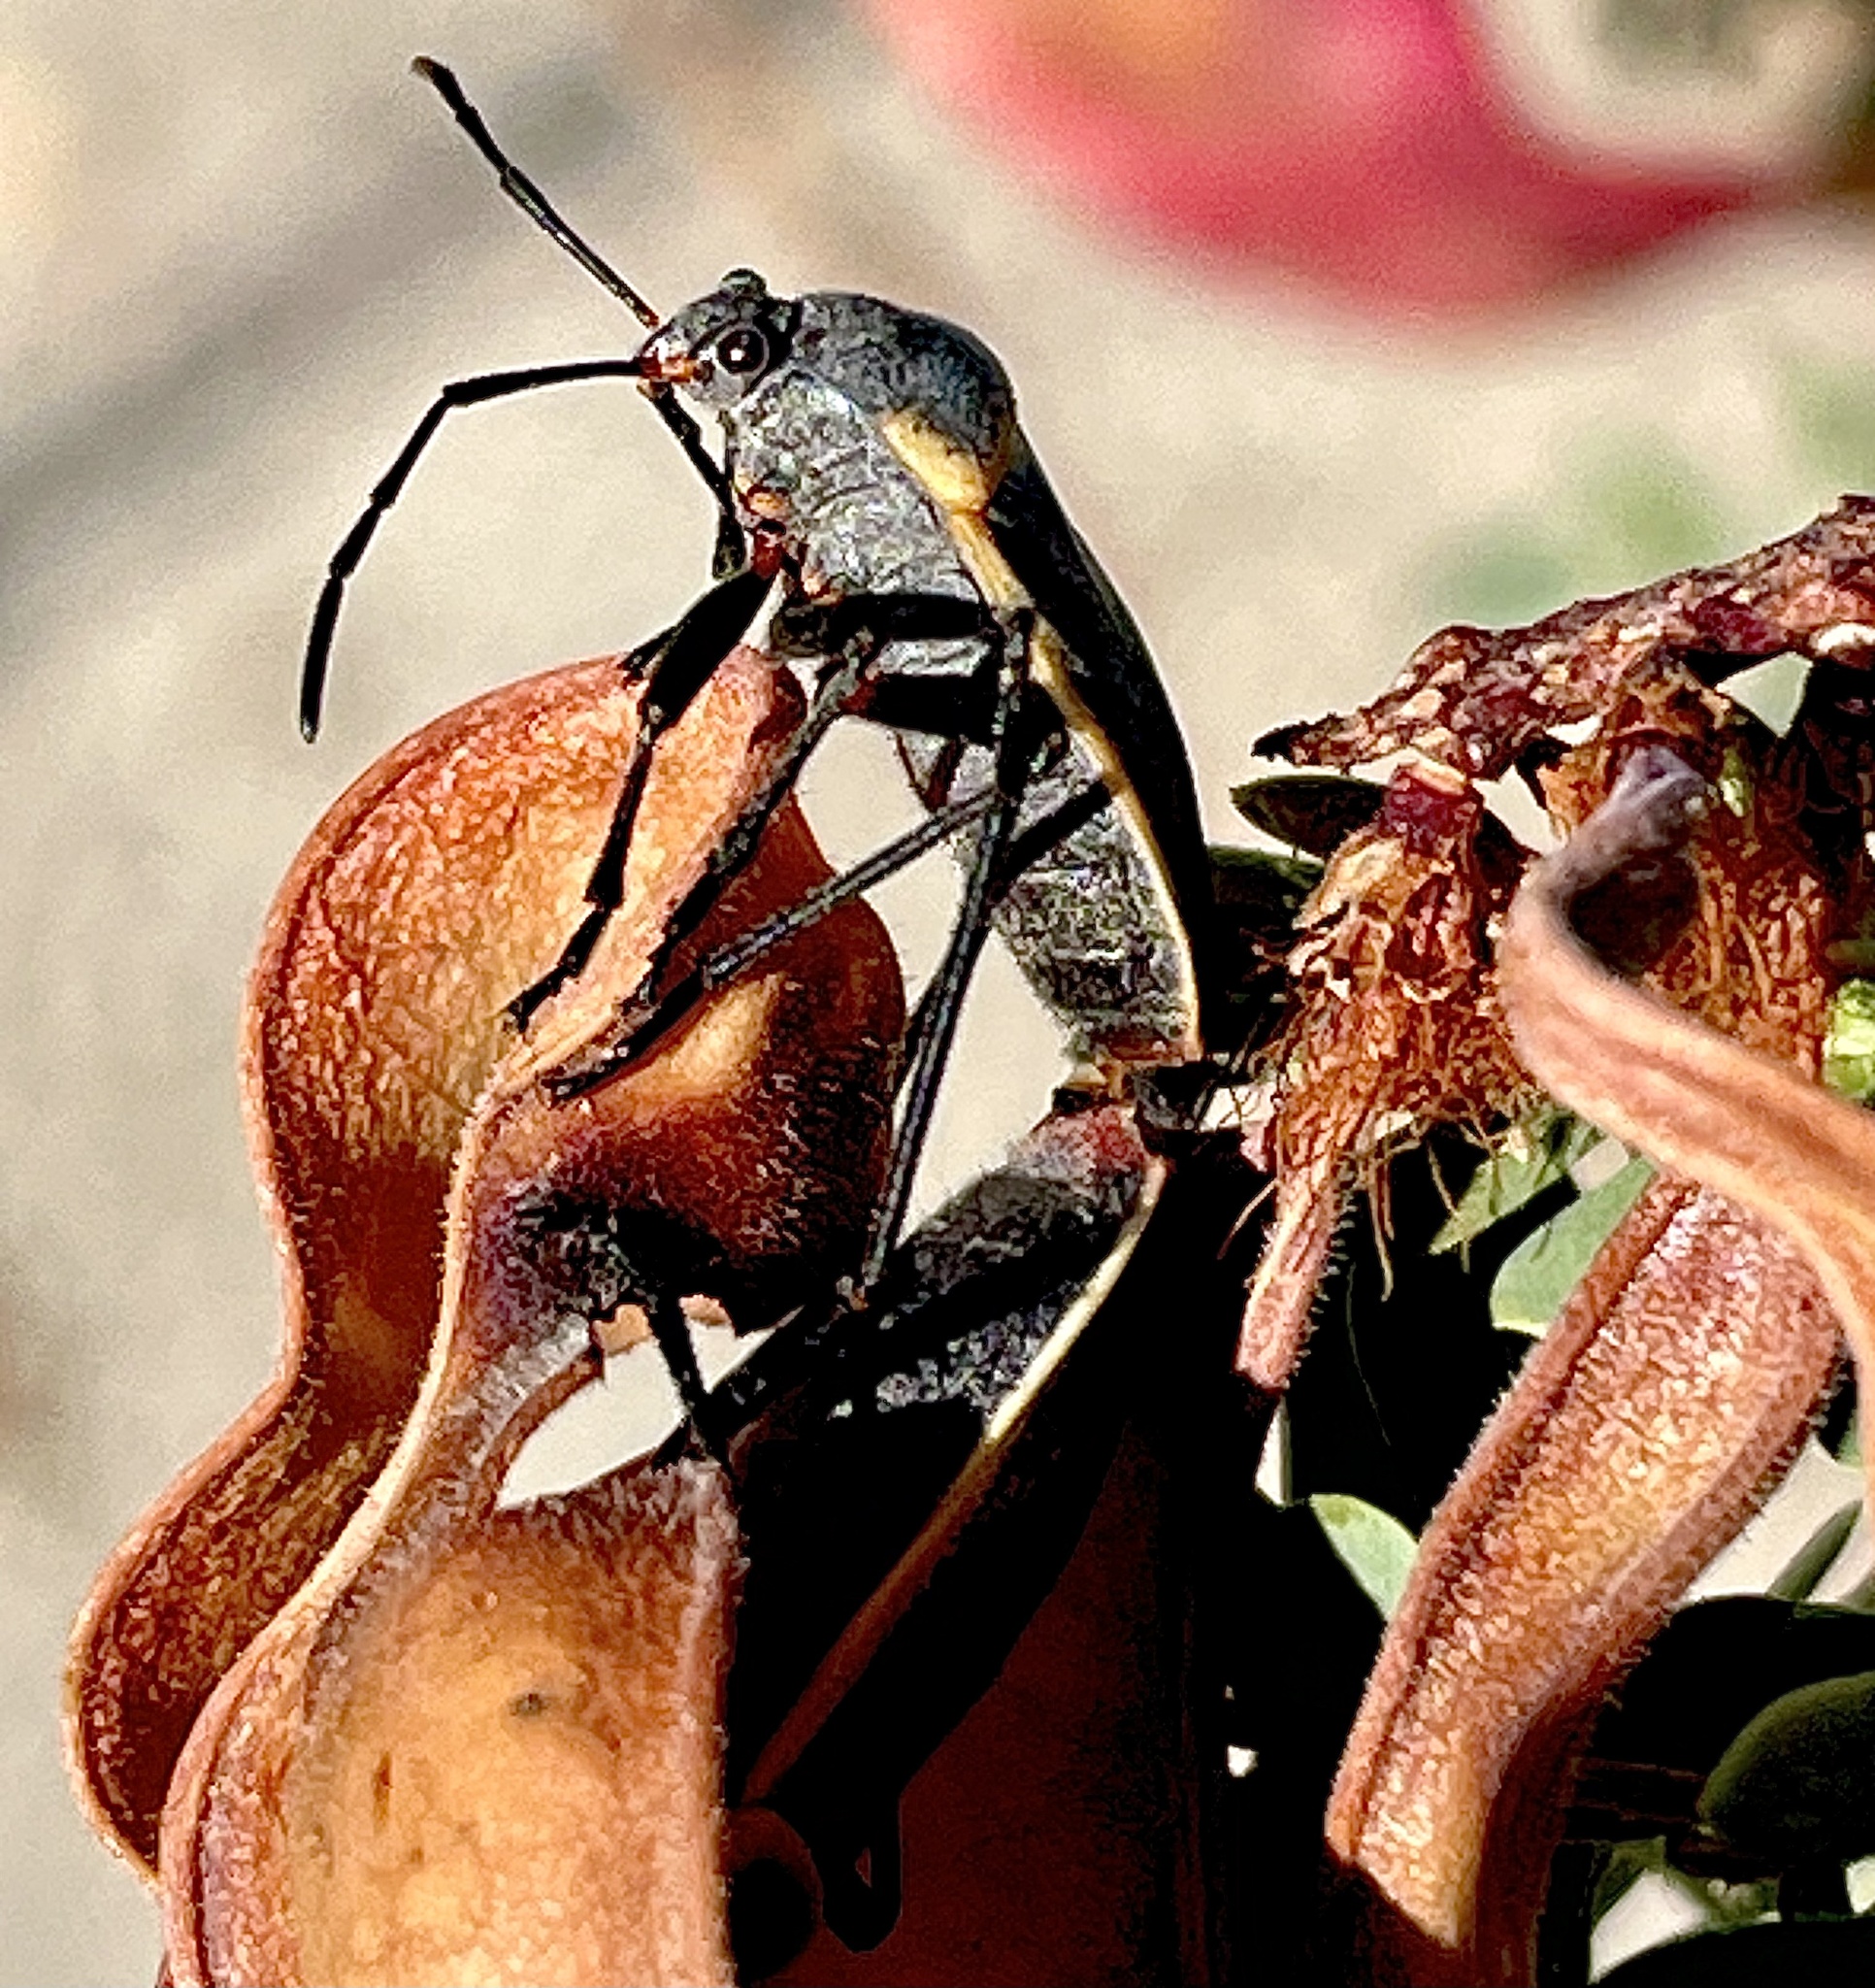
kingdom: Animalia
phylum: Arthropoda
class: Insecta
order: Hemiptera
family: Largidae
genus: Largus
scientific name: Largus californicus
